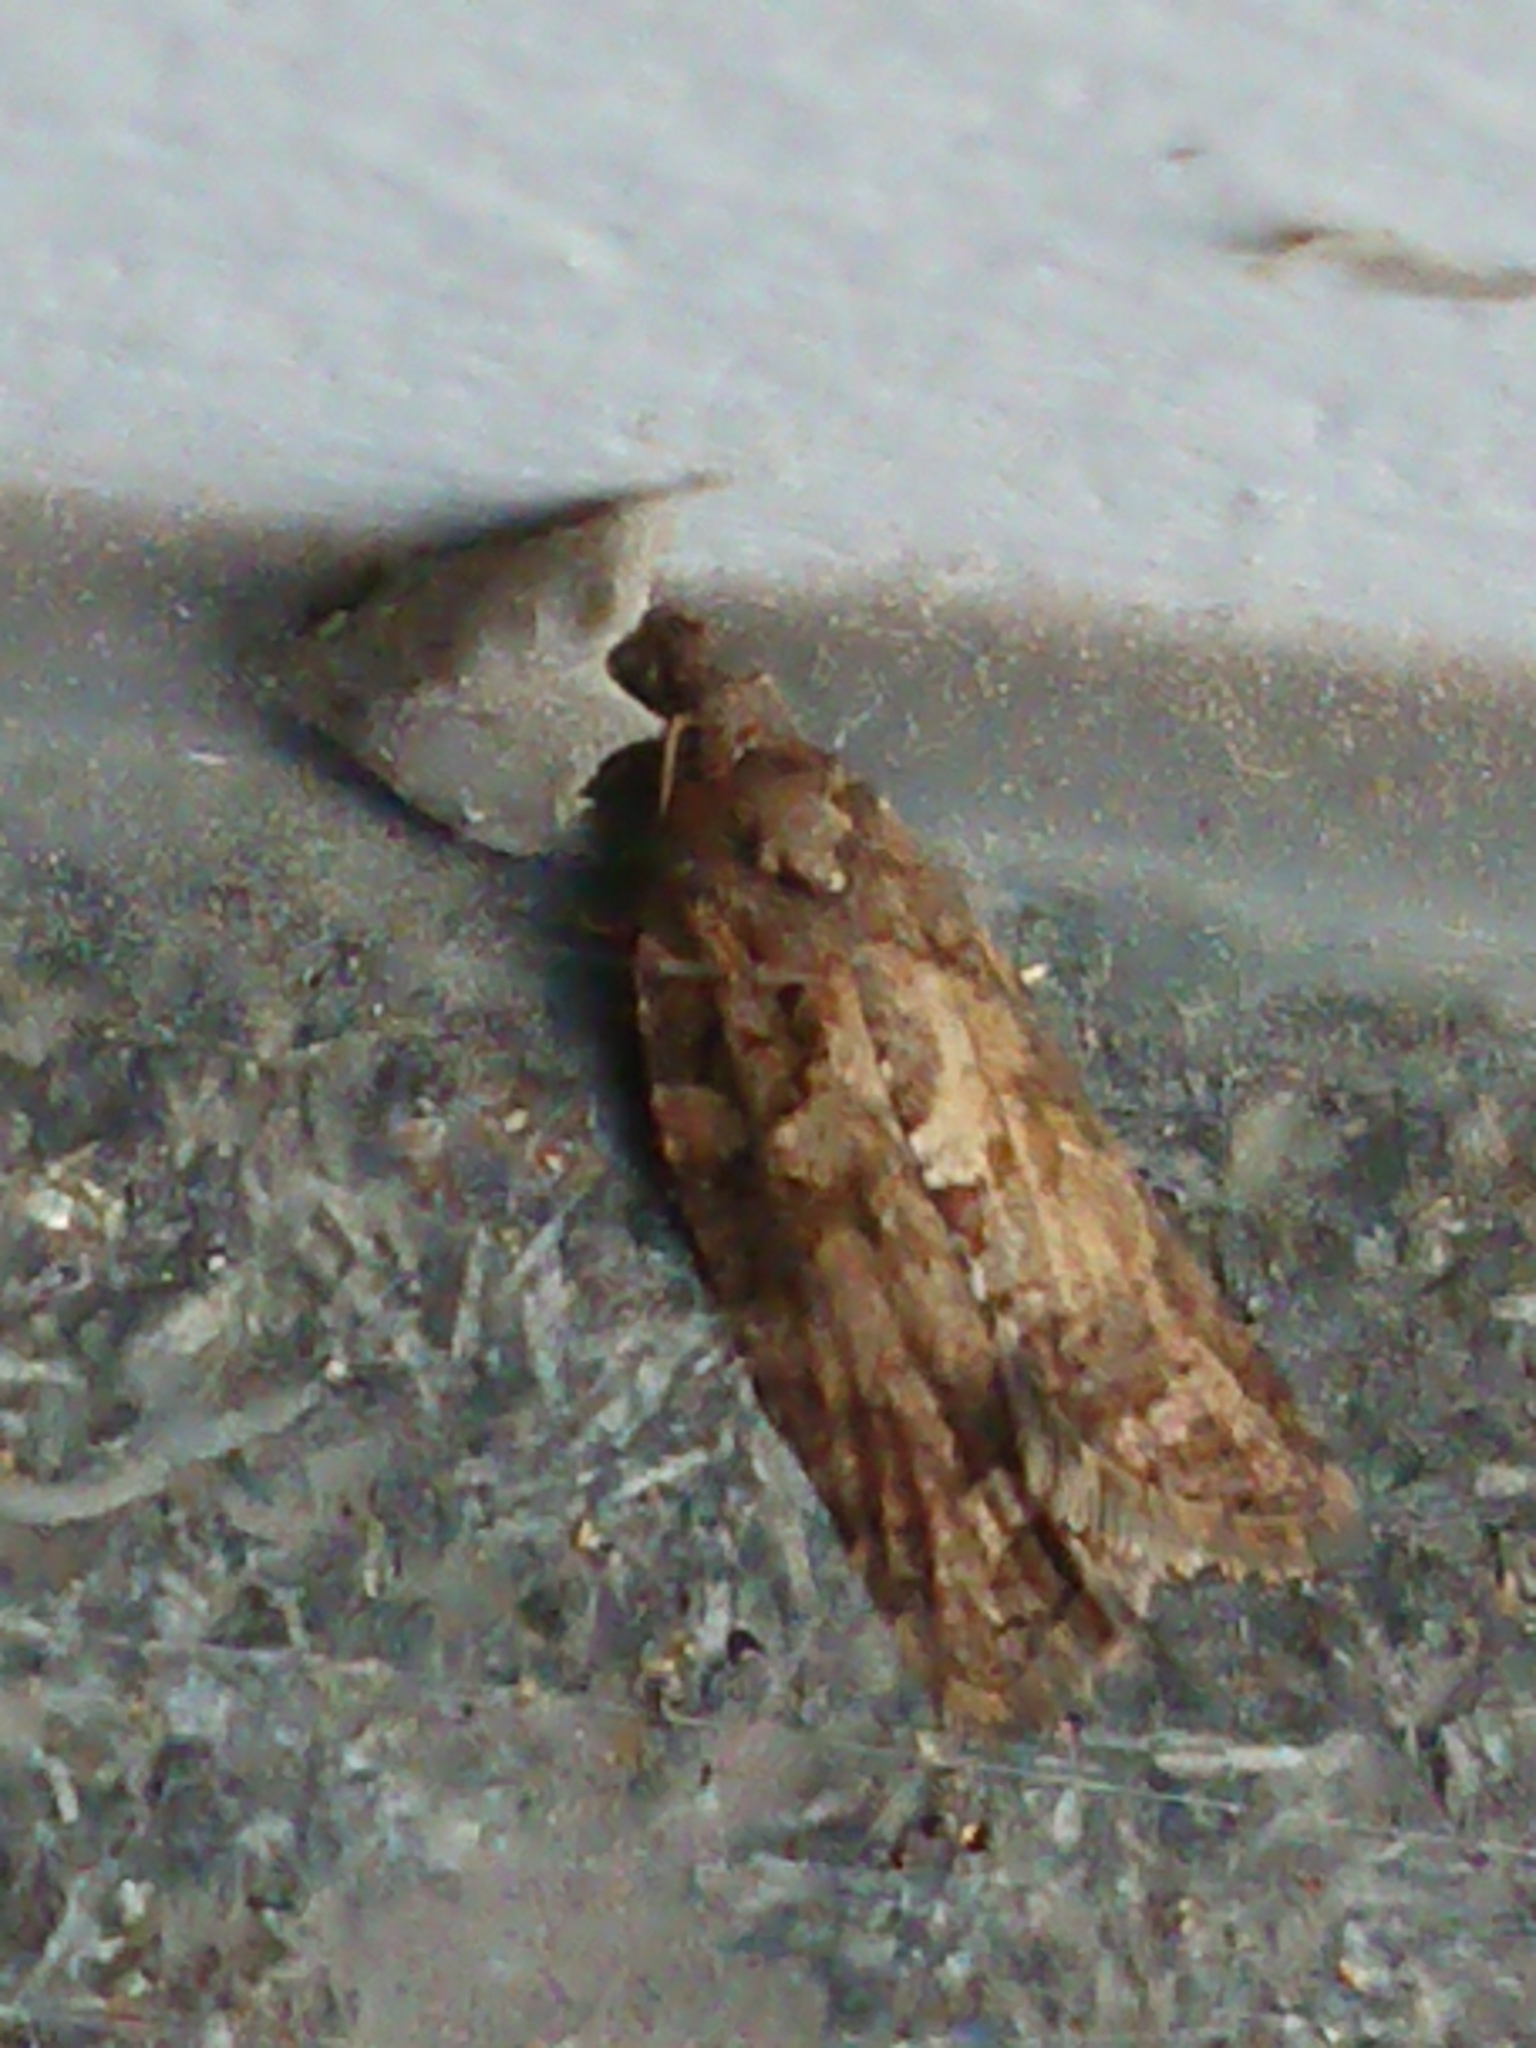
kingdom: Animalia
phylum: Arthropoda
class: Insecta
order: Lepidoptera
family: Tortricidae
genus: Capua
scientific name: Capua intractana
